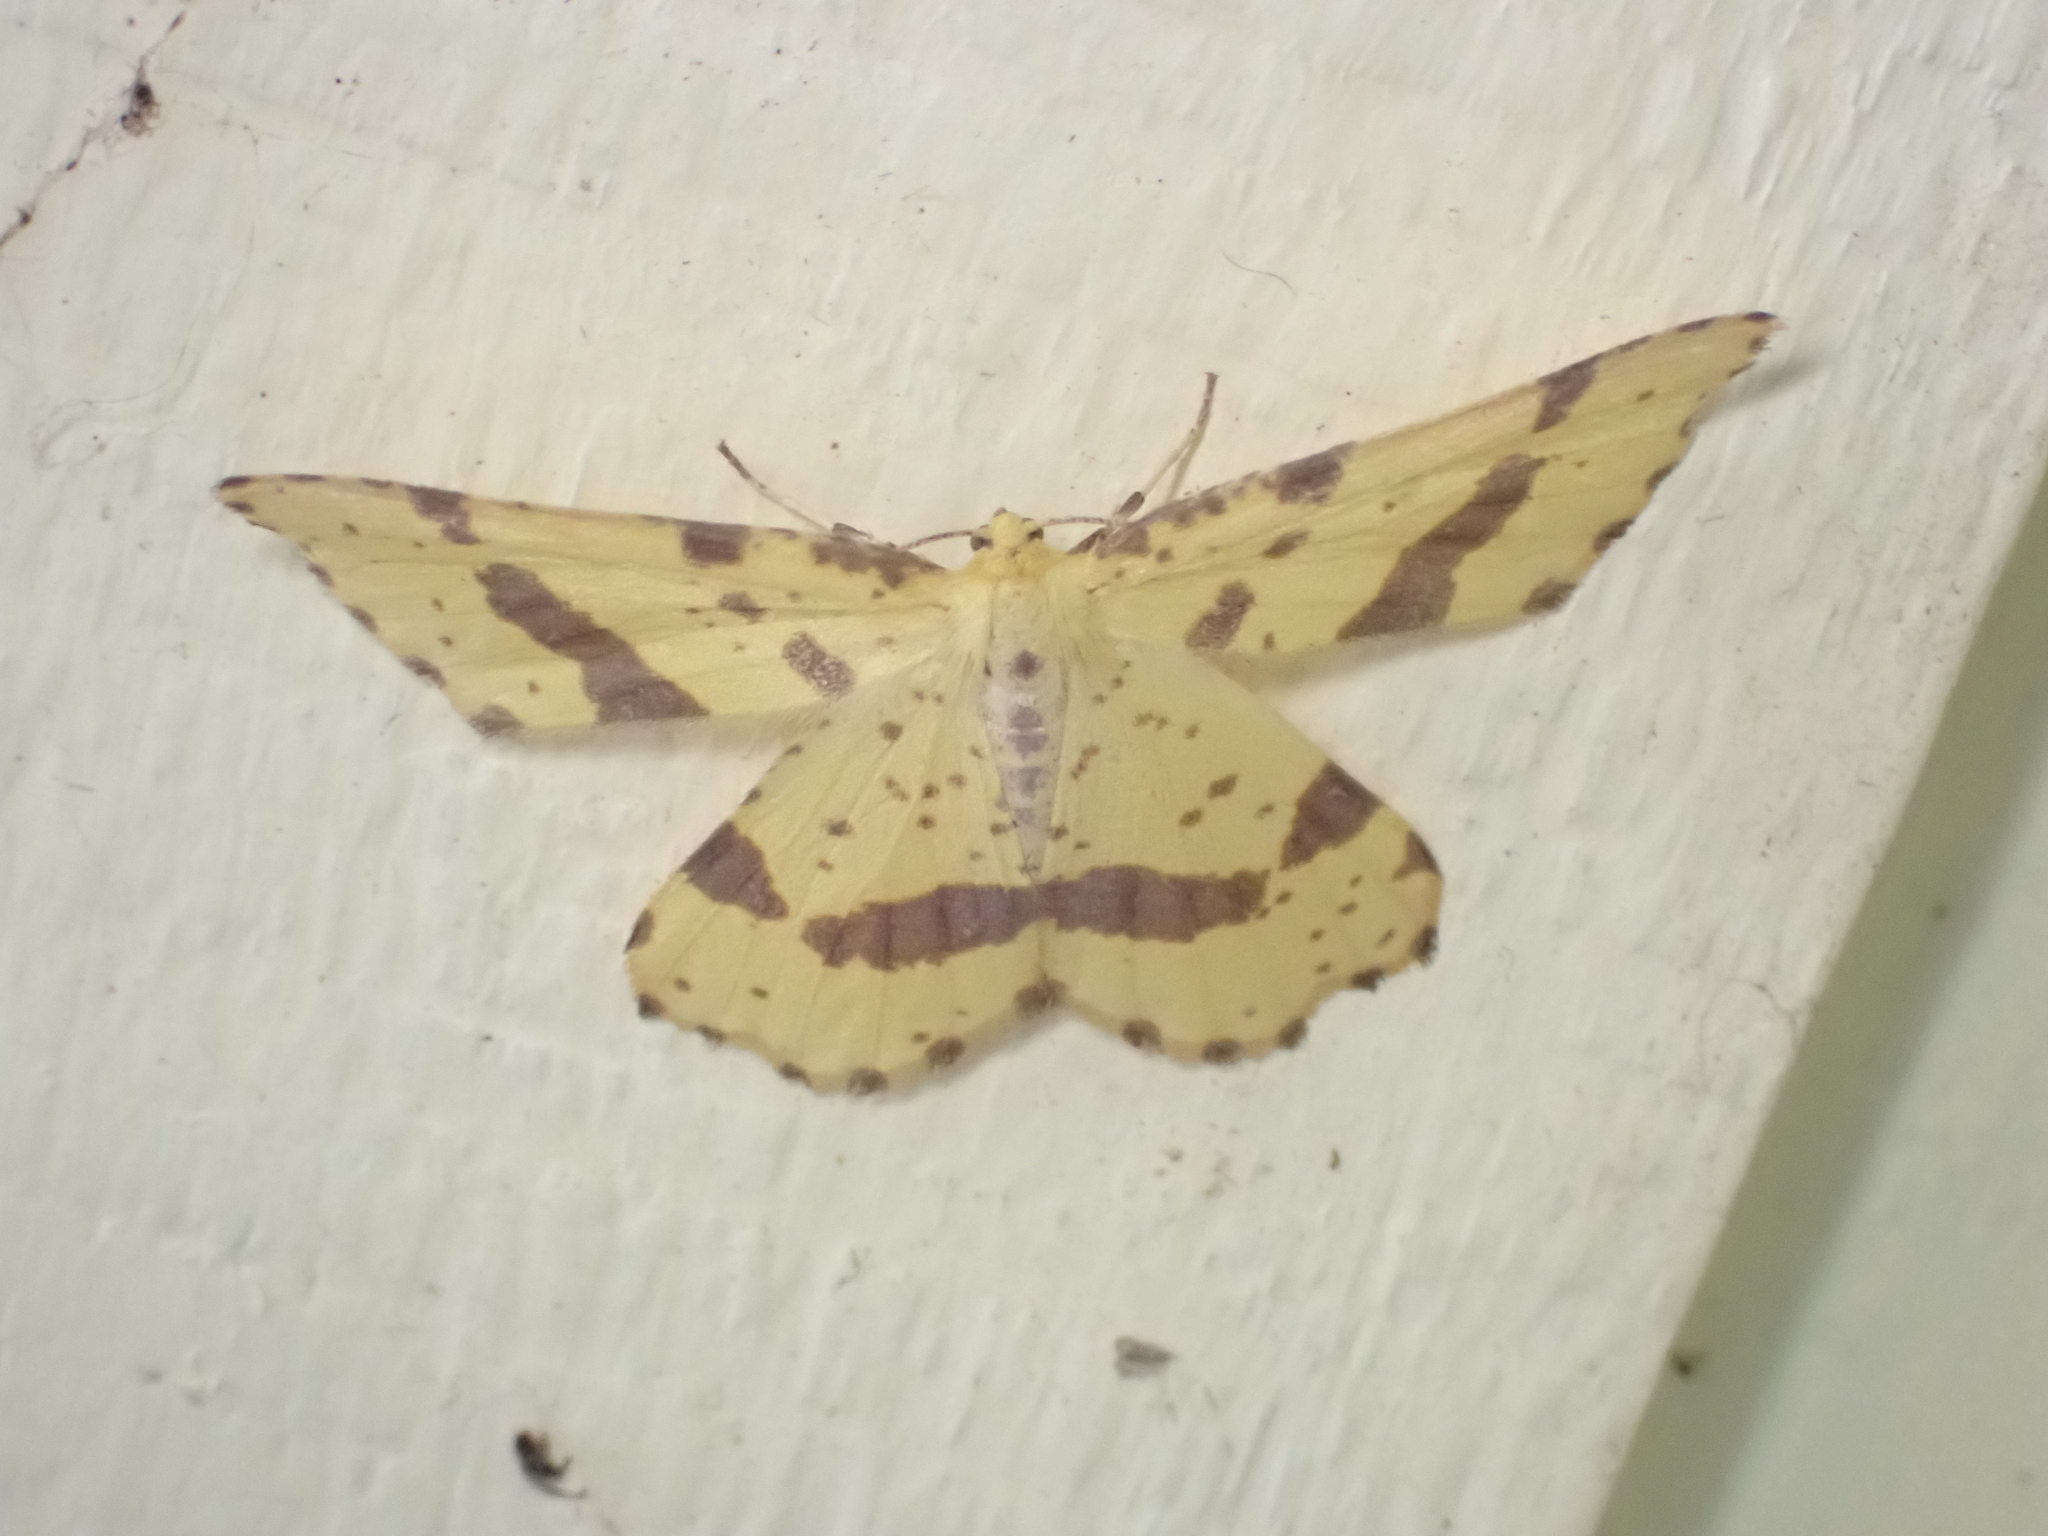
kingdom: Animalia
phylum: Arthropoda
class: Insecta
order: Lepidoptera
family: Geometridae
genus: Xanthotype
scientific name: Xanthotype
